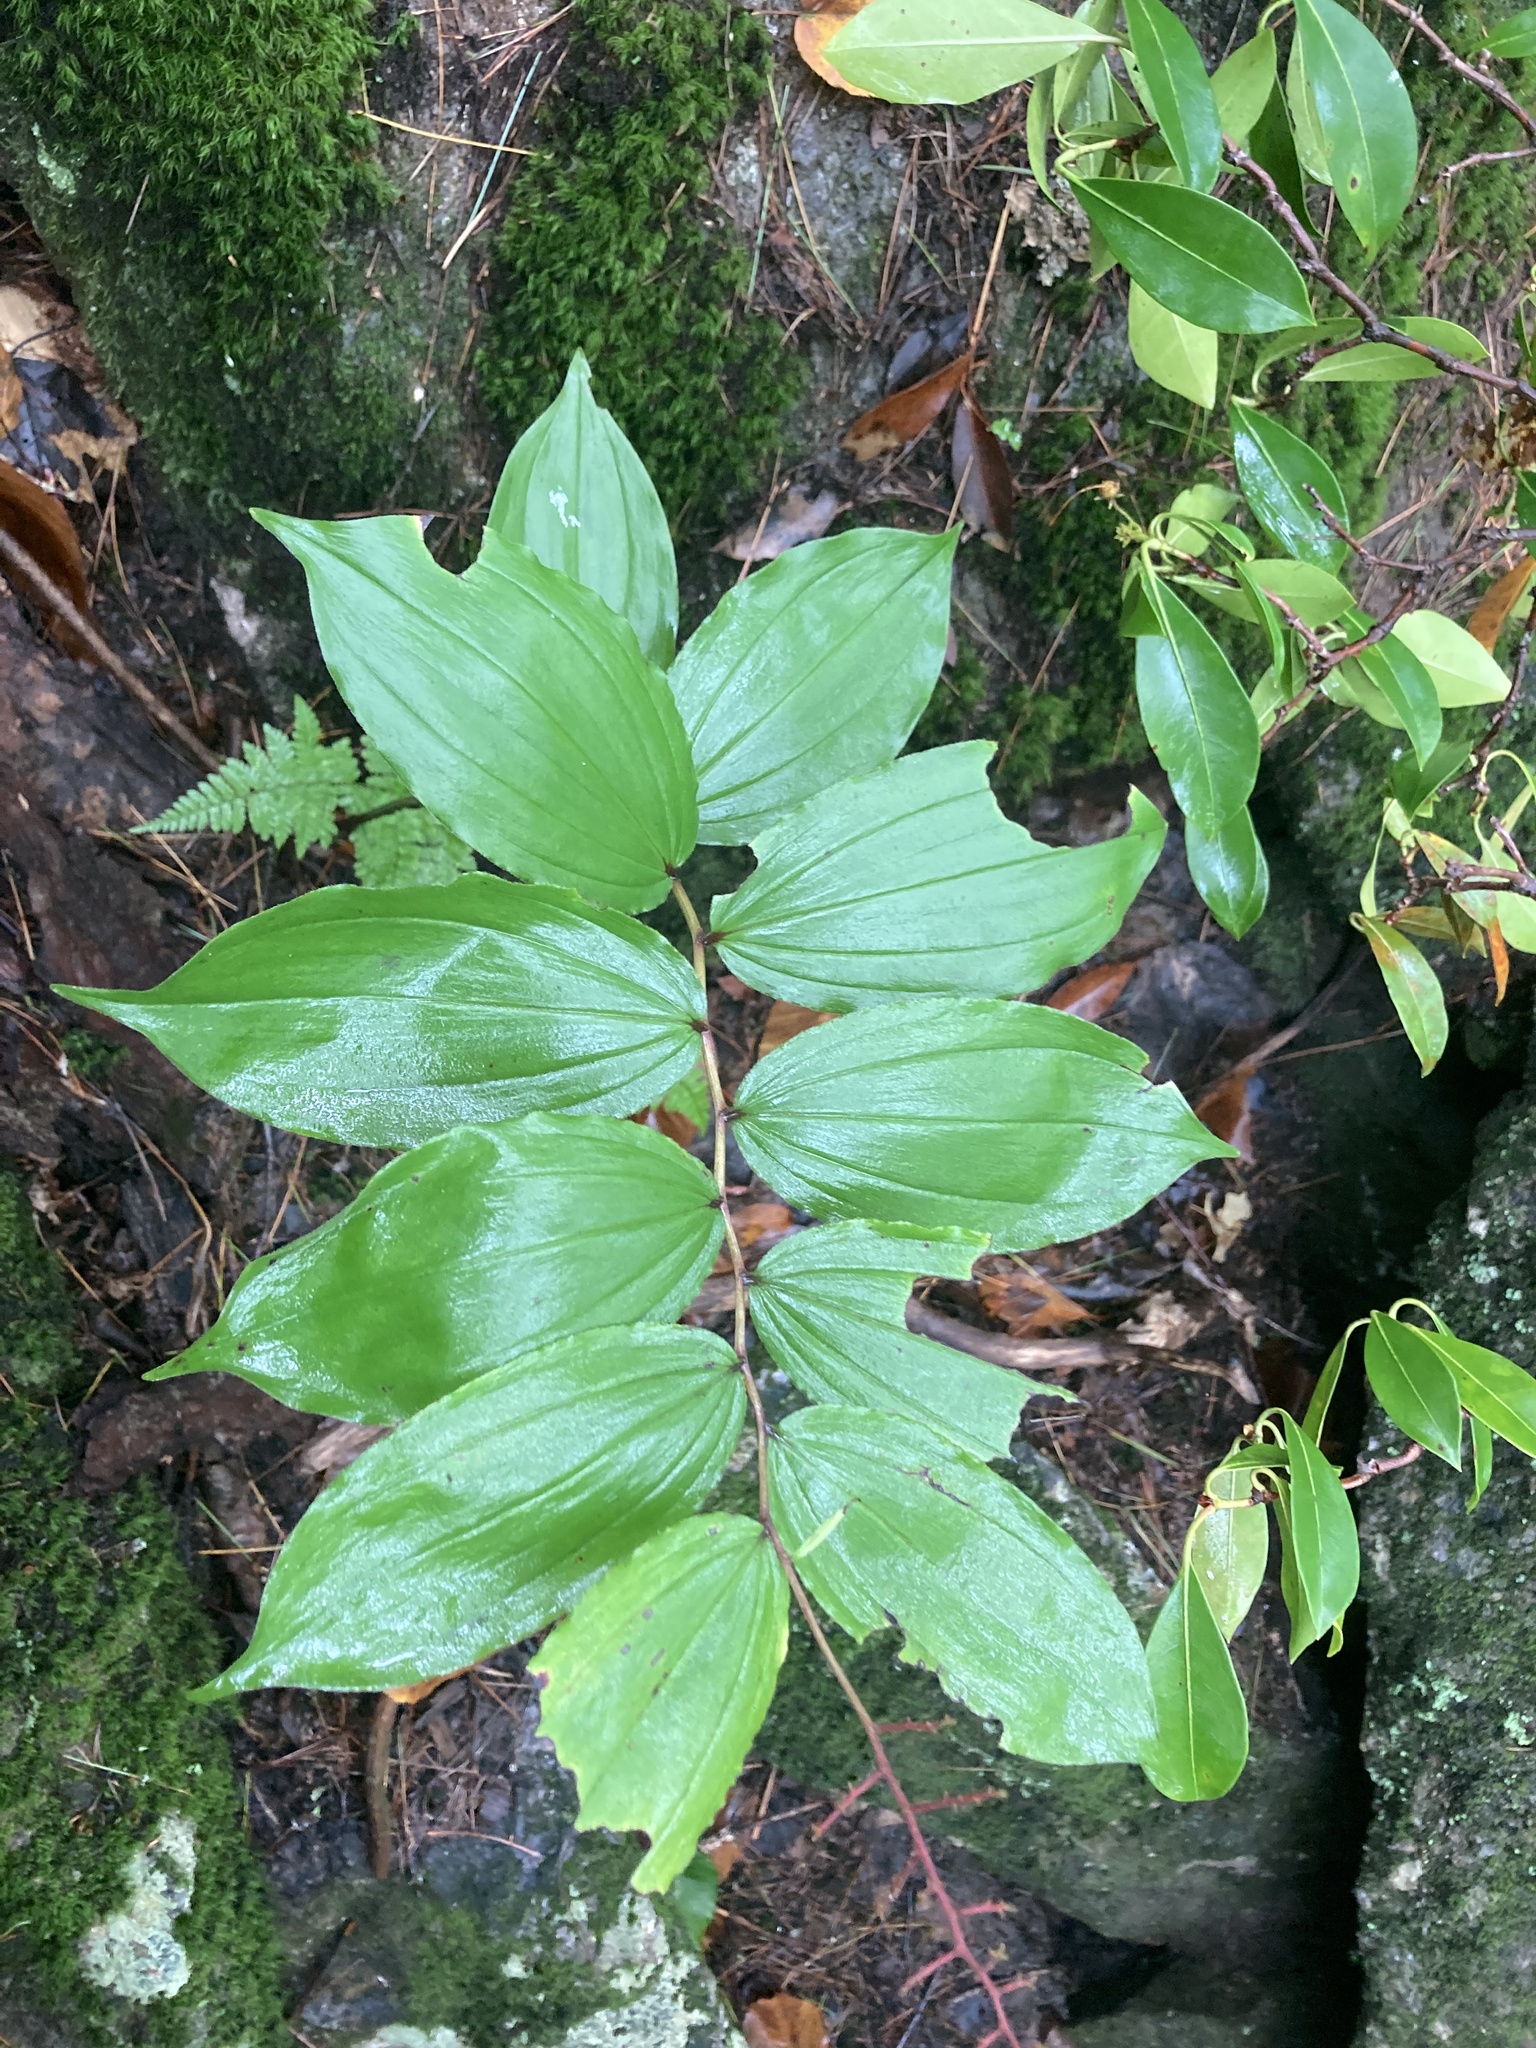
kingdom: Plantae
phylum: Tracheophyta
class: Liliopsida
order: Asparagales
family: Asparagaceae
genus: Maianthemum
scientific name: Maianthemum racemosum
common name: False spikenard
